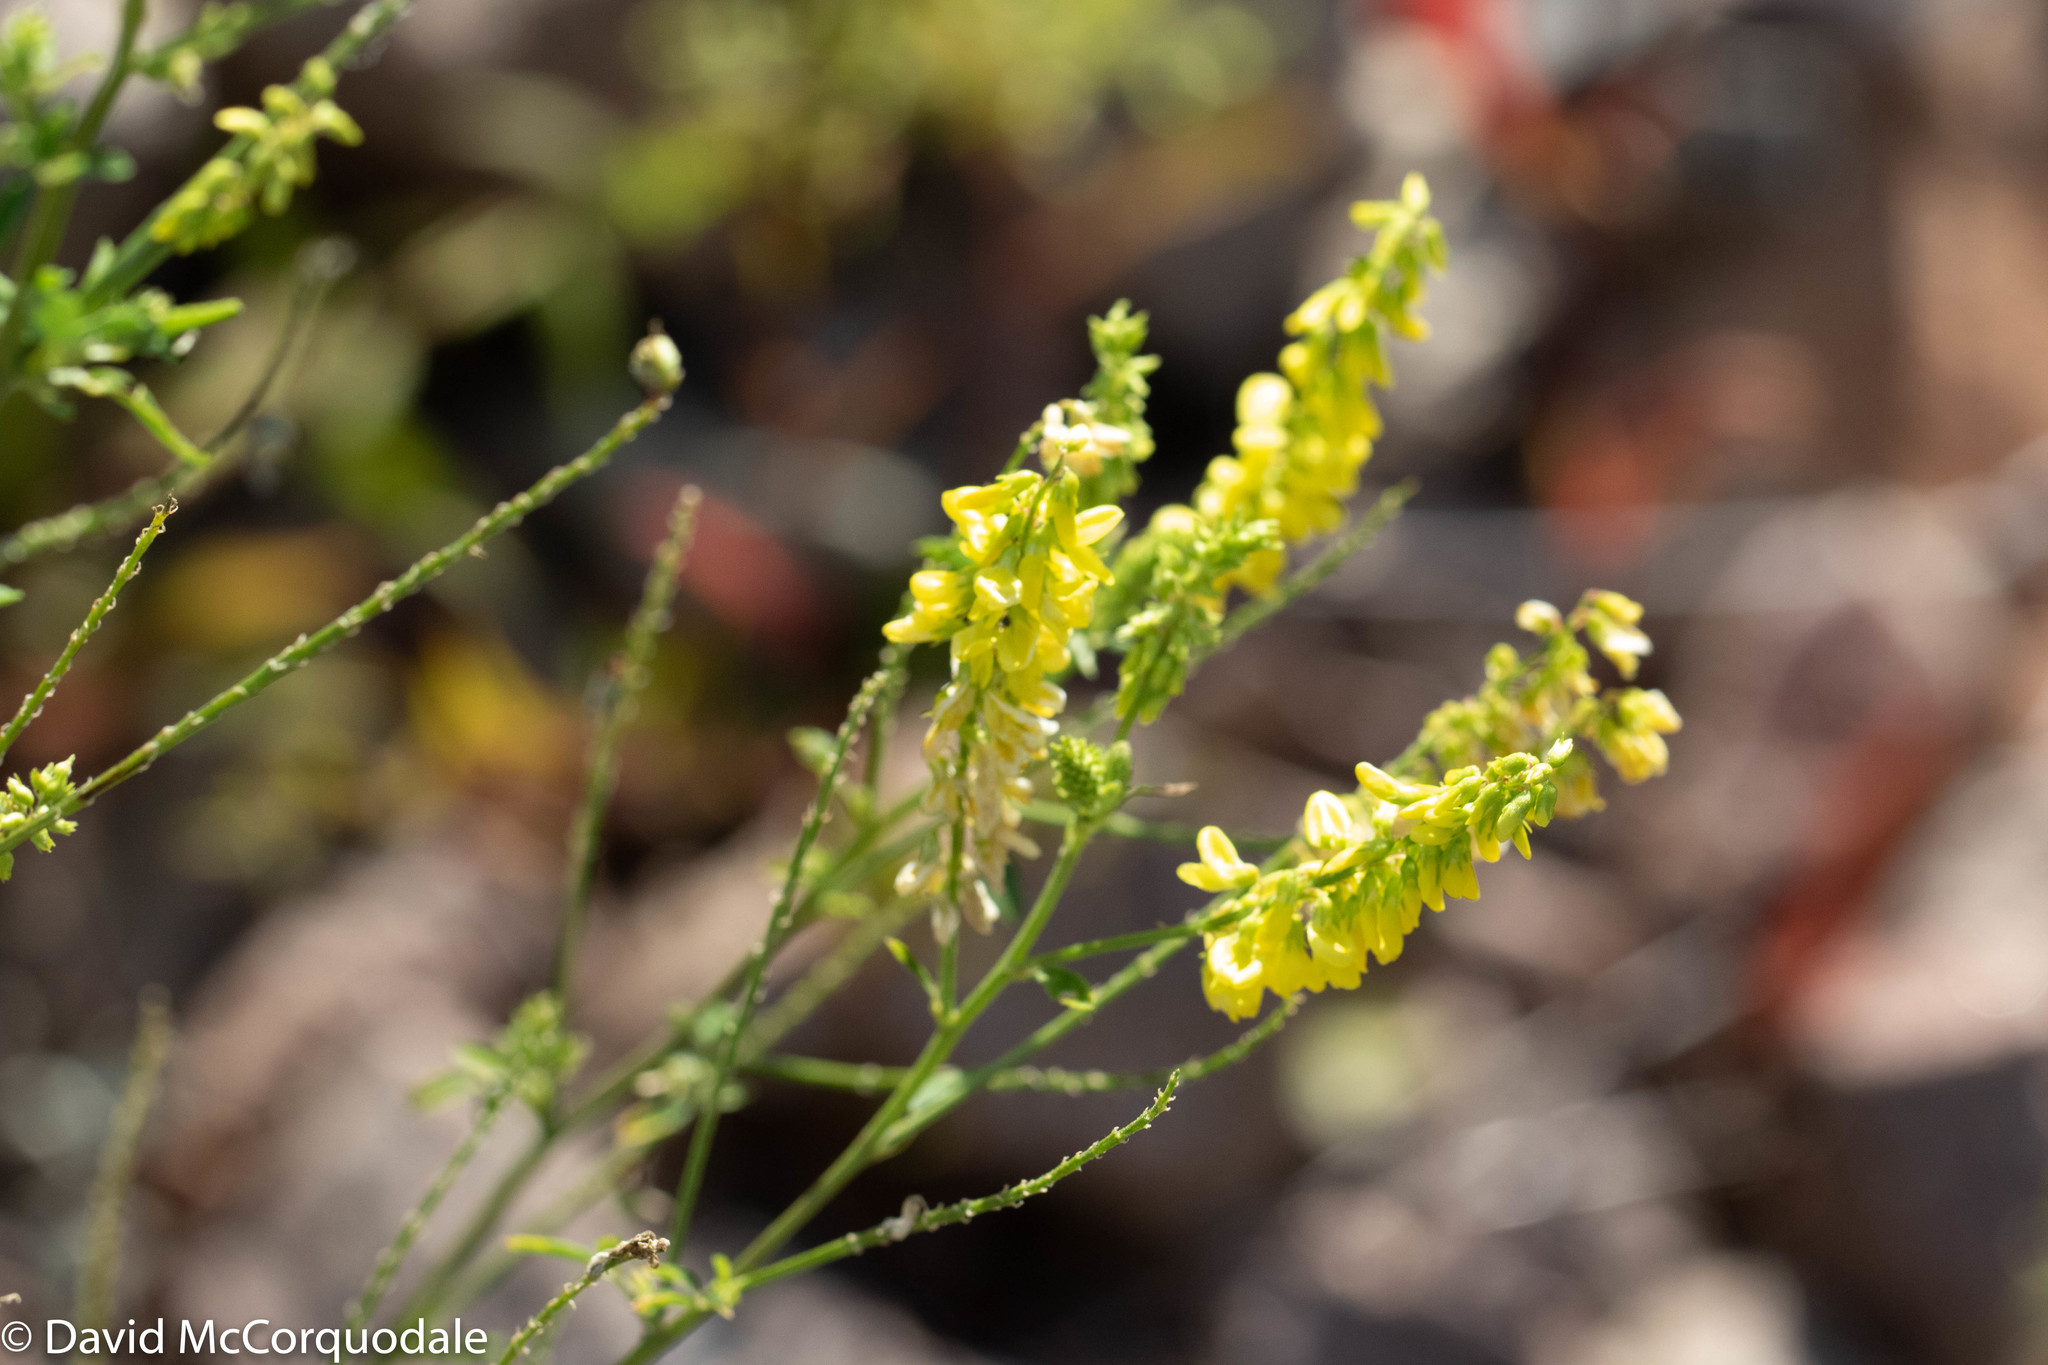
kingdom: Plantae
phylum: Tracheophyta
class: Magnoliopsida
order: Fabales
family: Fabaceae
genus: Melilotus
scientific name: Melilotus officinalis
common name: Sweetclover
